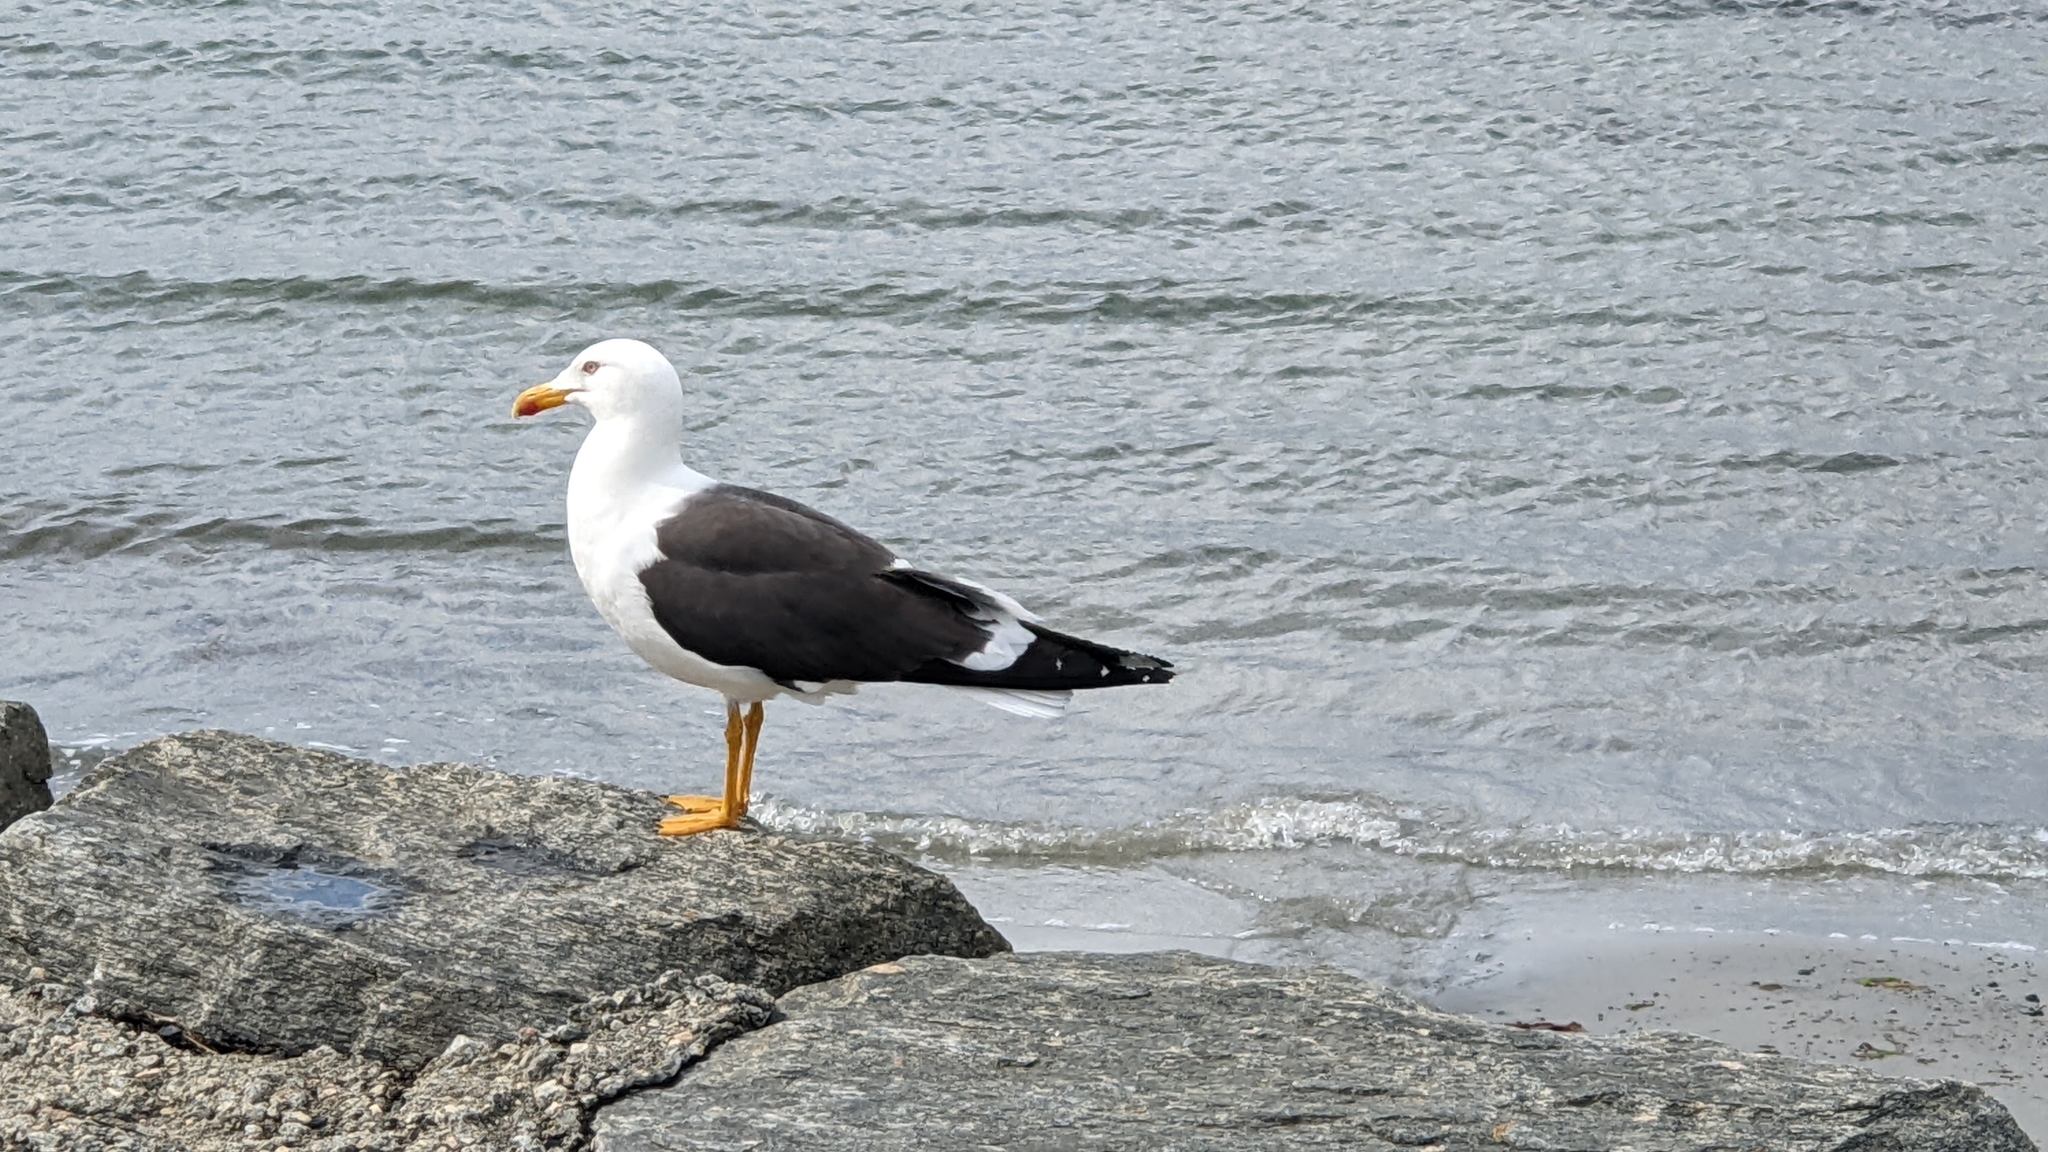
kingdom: Animalia
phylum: Chordata
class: Aves
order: Charadriiformes
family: Laridae
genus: Larus
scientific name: Larus fuscus
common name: Lesser black-backed gull
